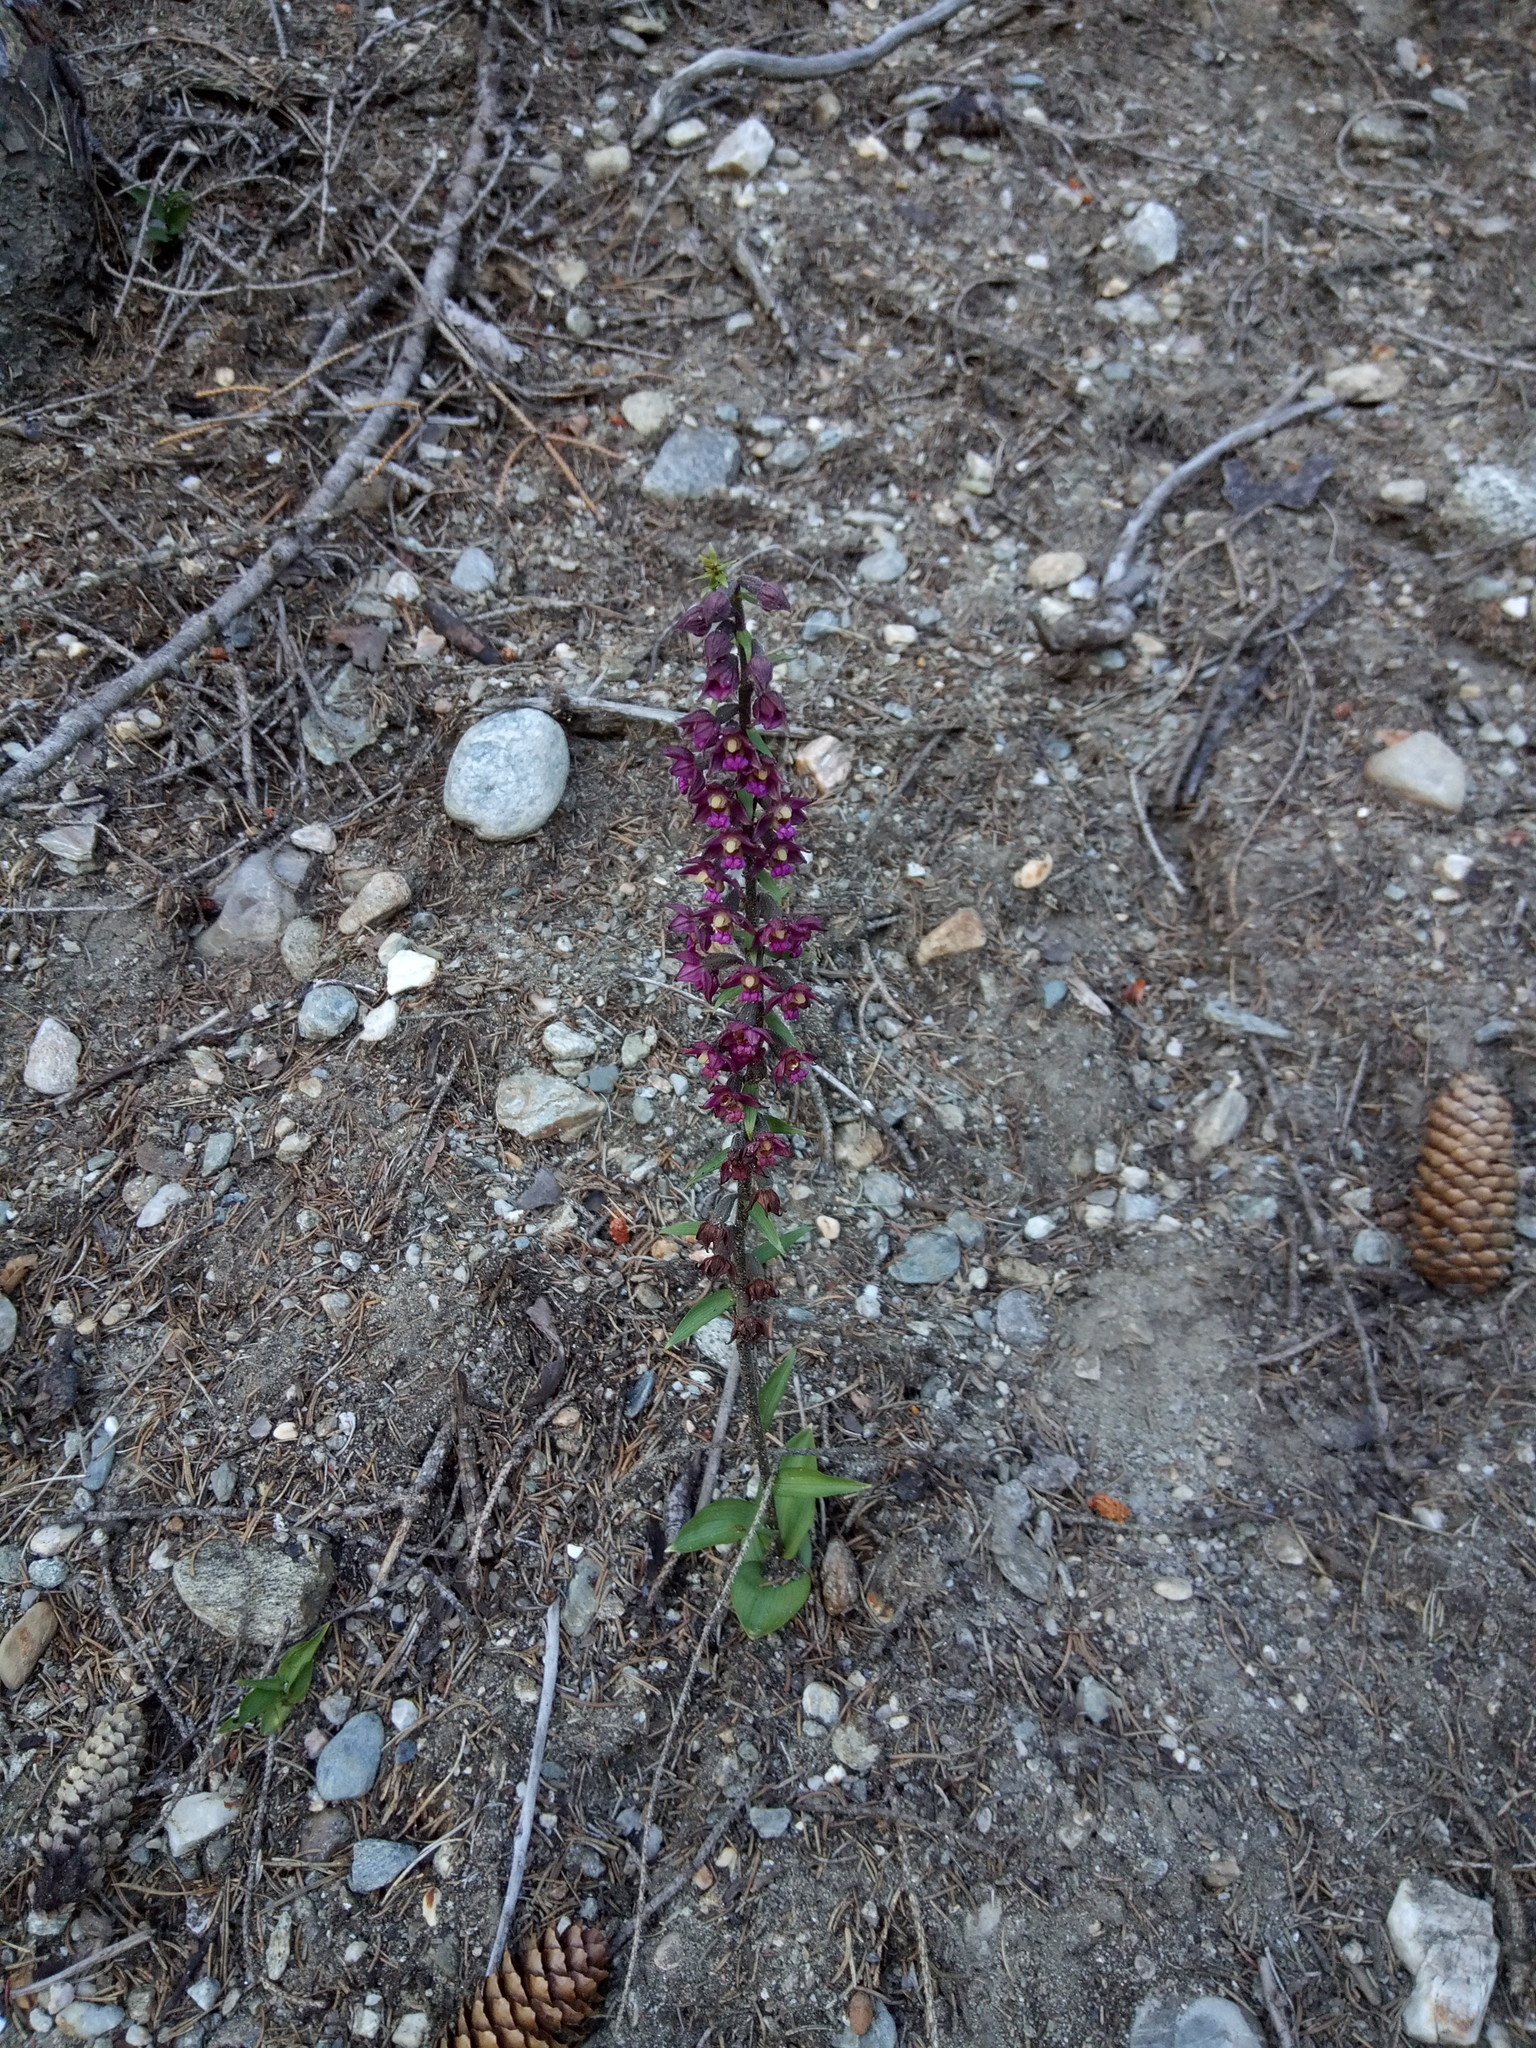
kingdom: Plantae
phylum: Tracheophyta
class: Liliopsida
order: Asparagales
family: Orchidaceae
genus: Epipactis
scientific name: Epipactis atrorubens
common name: Dark-red helleborine
